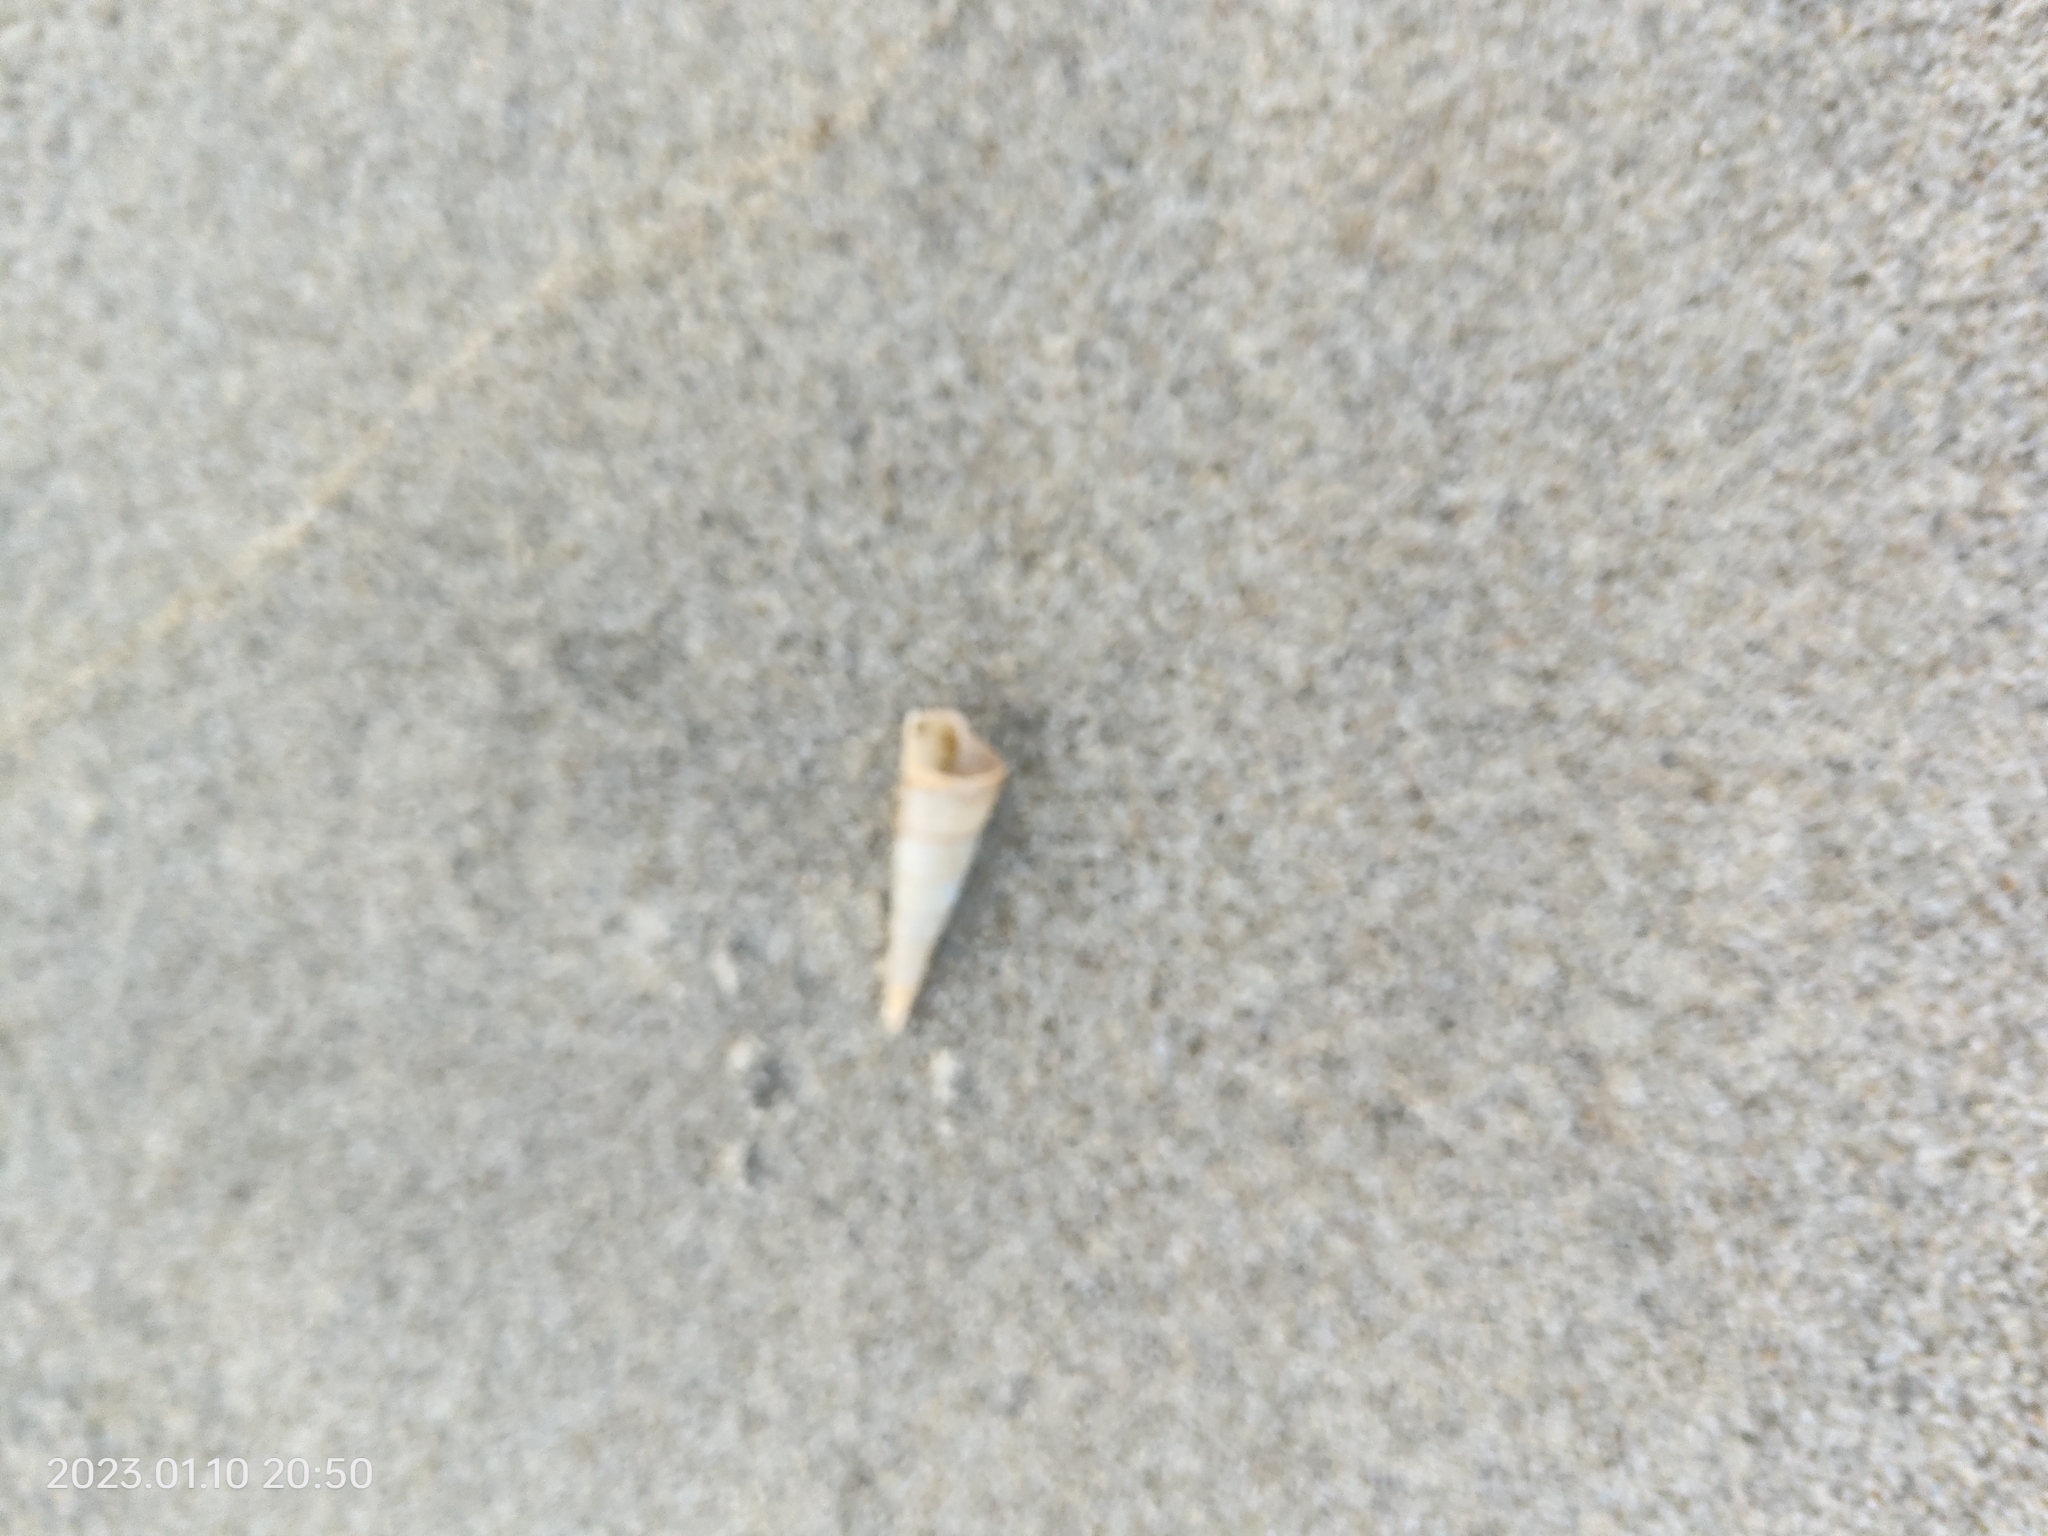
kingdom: Animalia
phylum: Mollusca
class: Gastropoda
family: Turritellidae
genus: Maoricolpus
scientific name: Maoricolpus roseus
